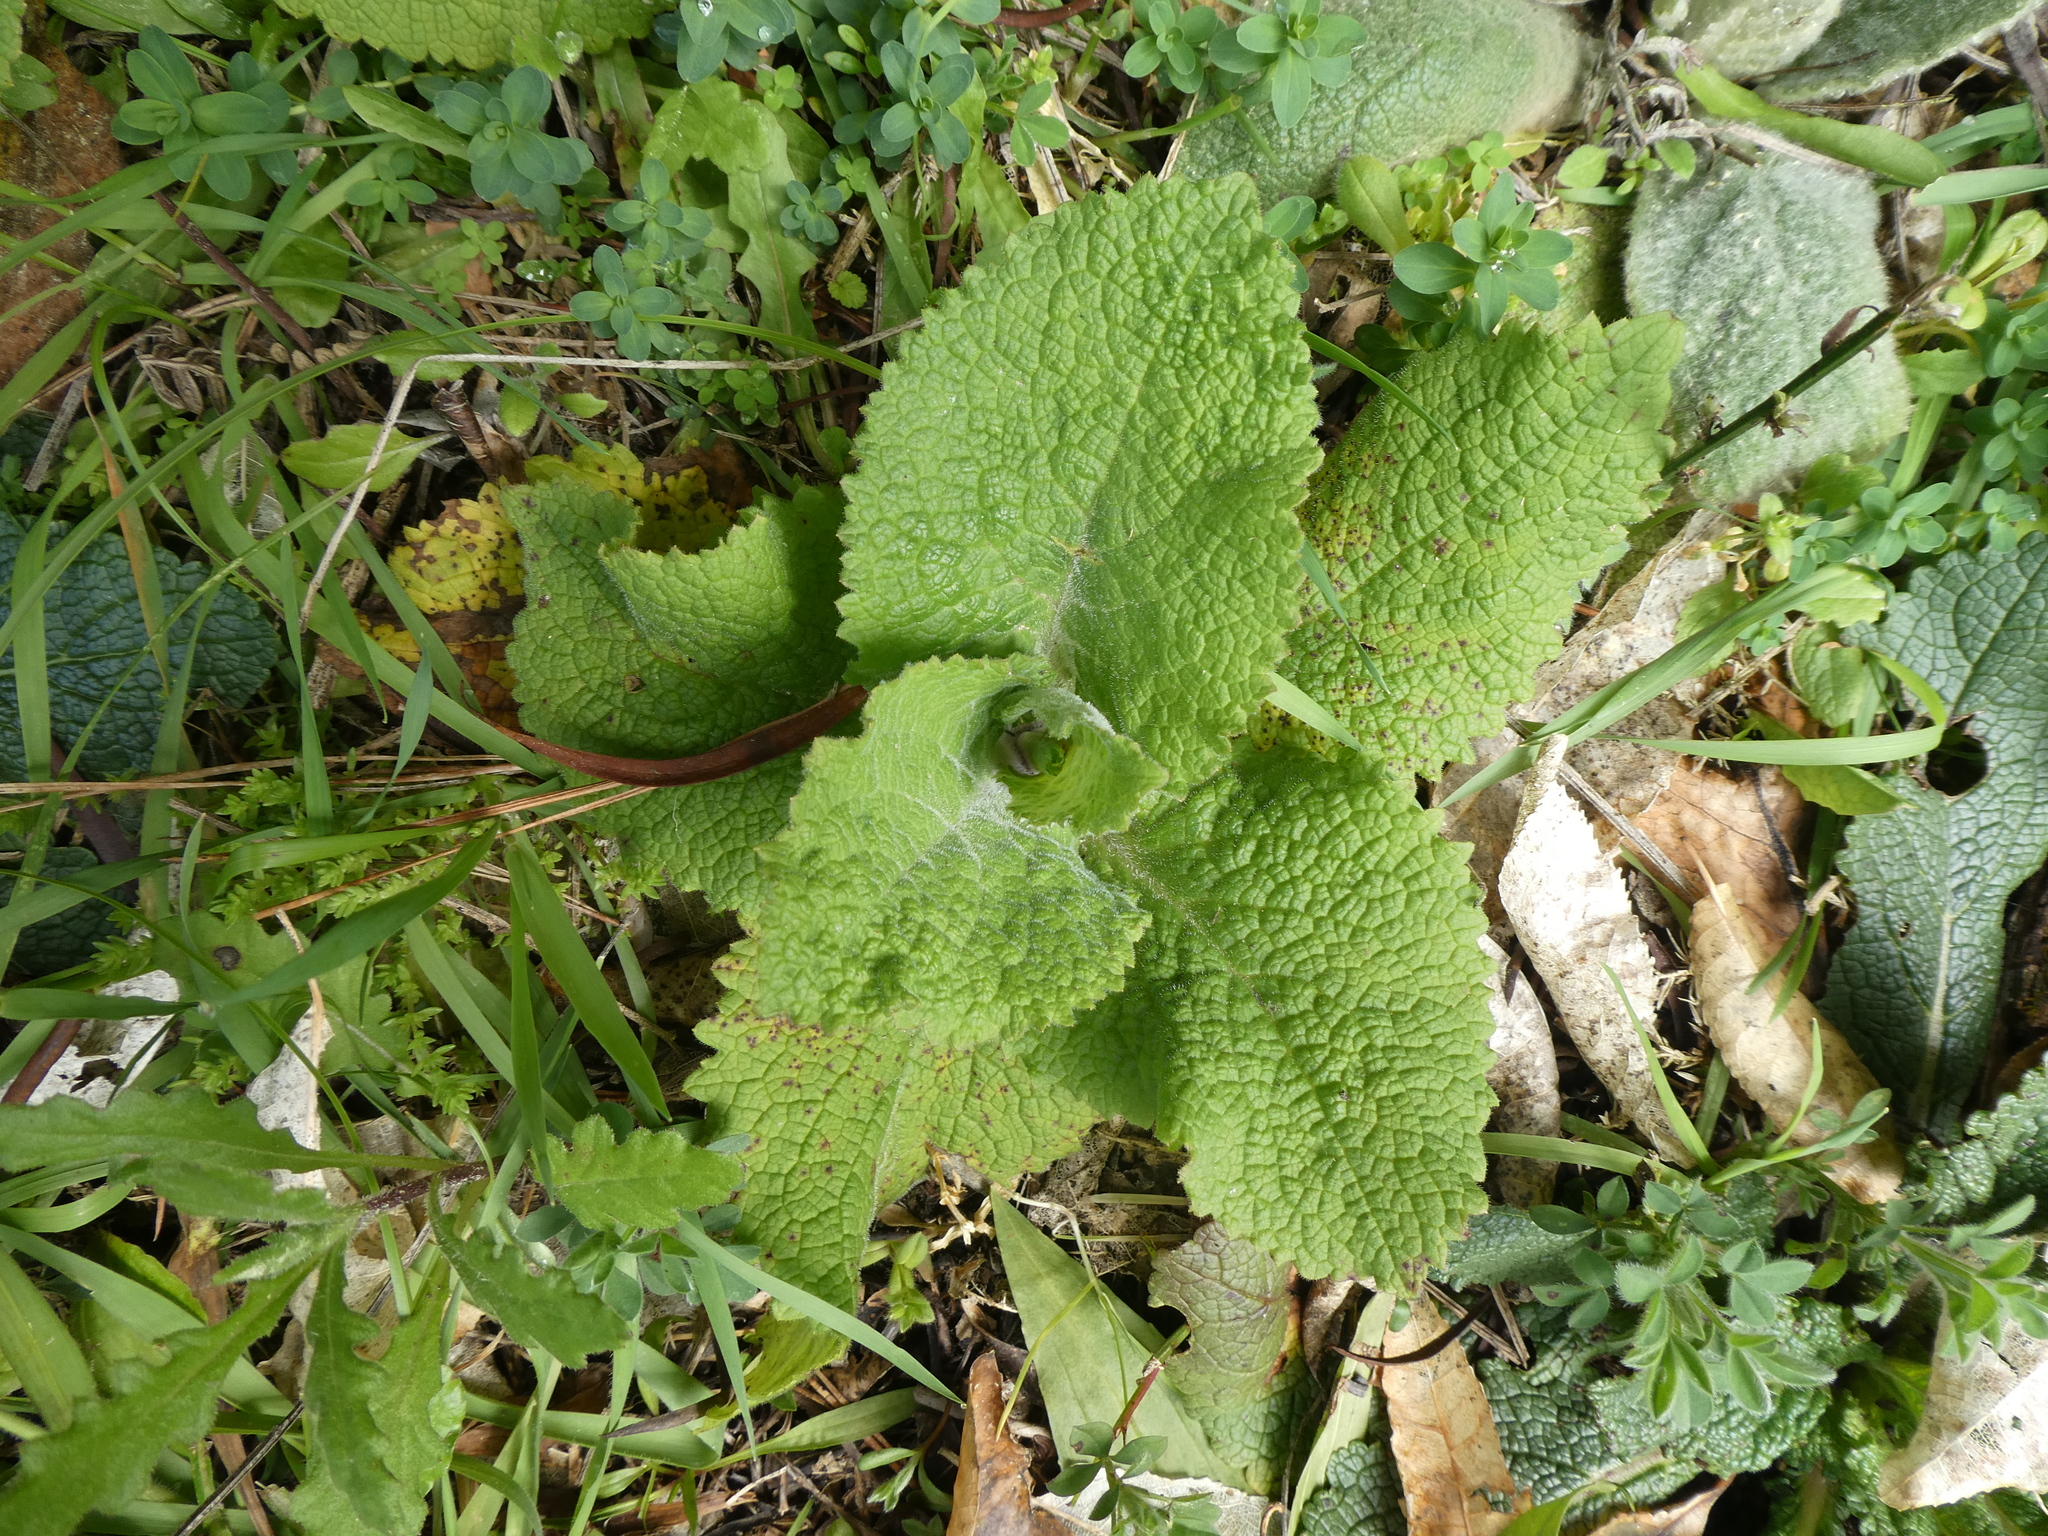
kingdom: Plantae
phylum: Tracheophyta
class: Magnoliopsida
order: Lamiales
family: Plantaginaceae
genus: Digitalis
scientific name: Digitalis purpurea
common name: Foxglove
